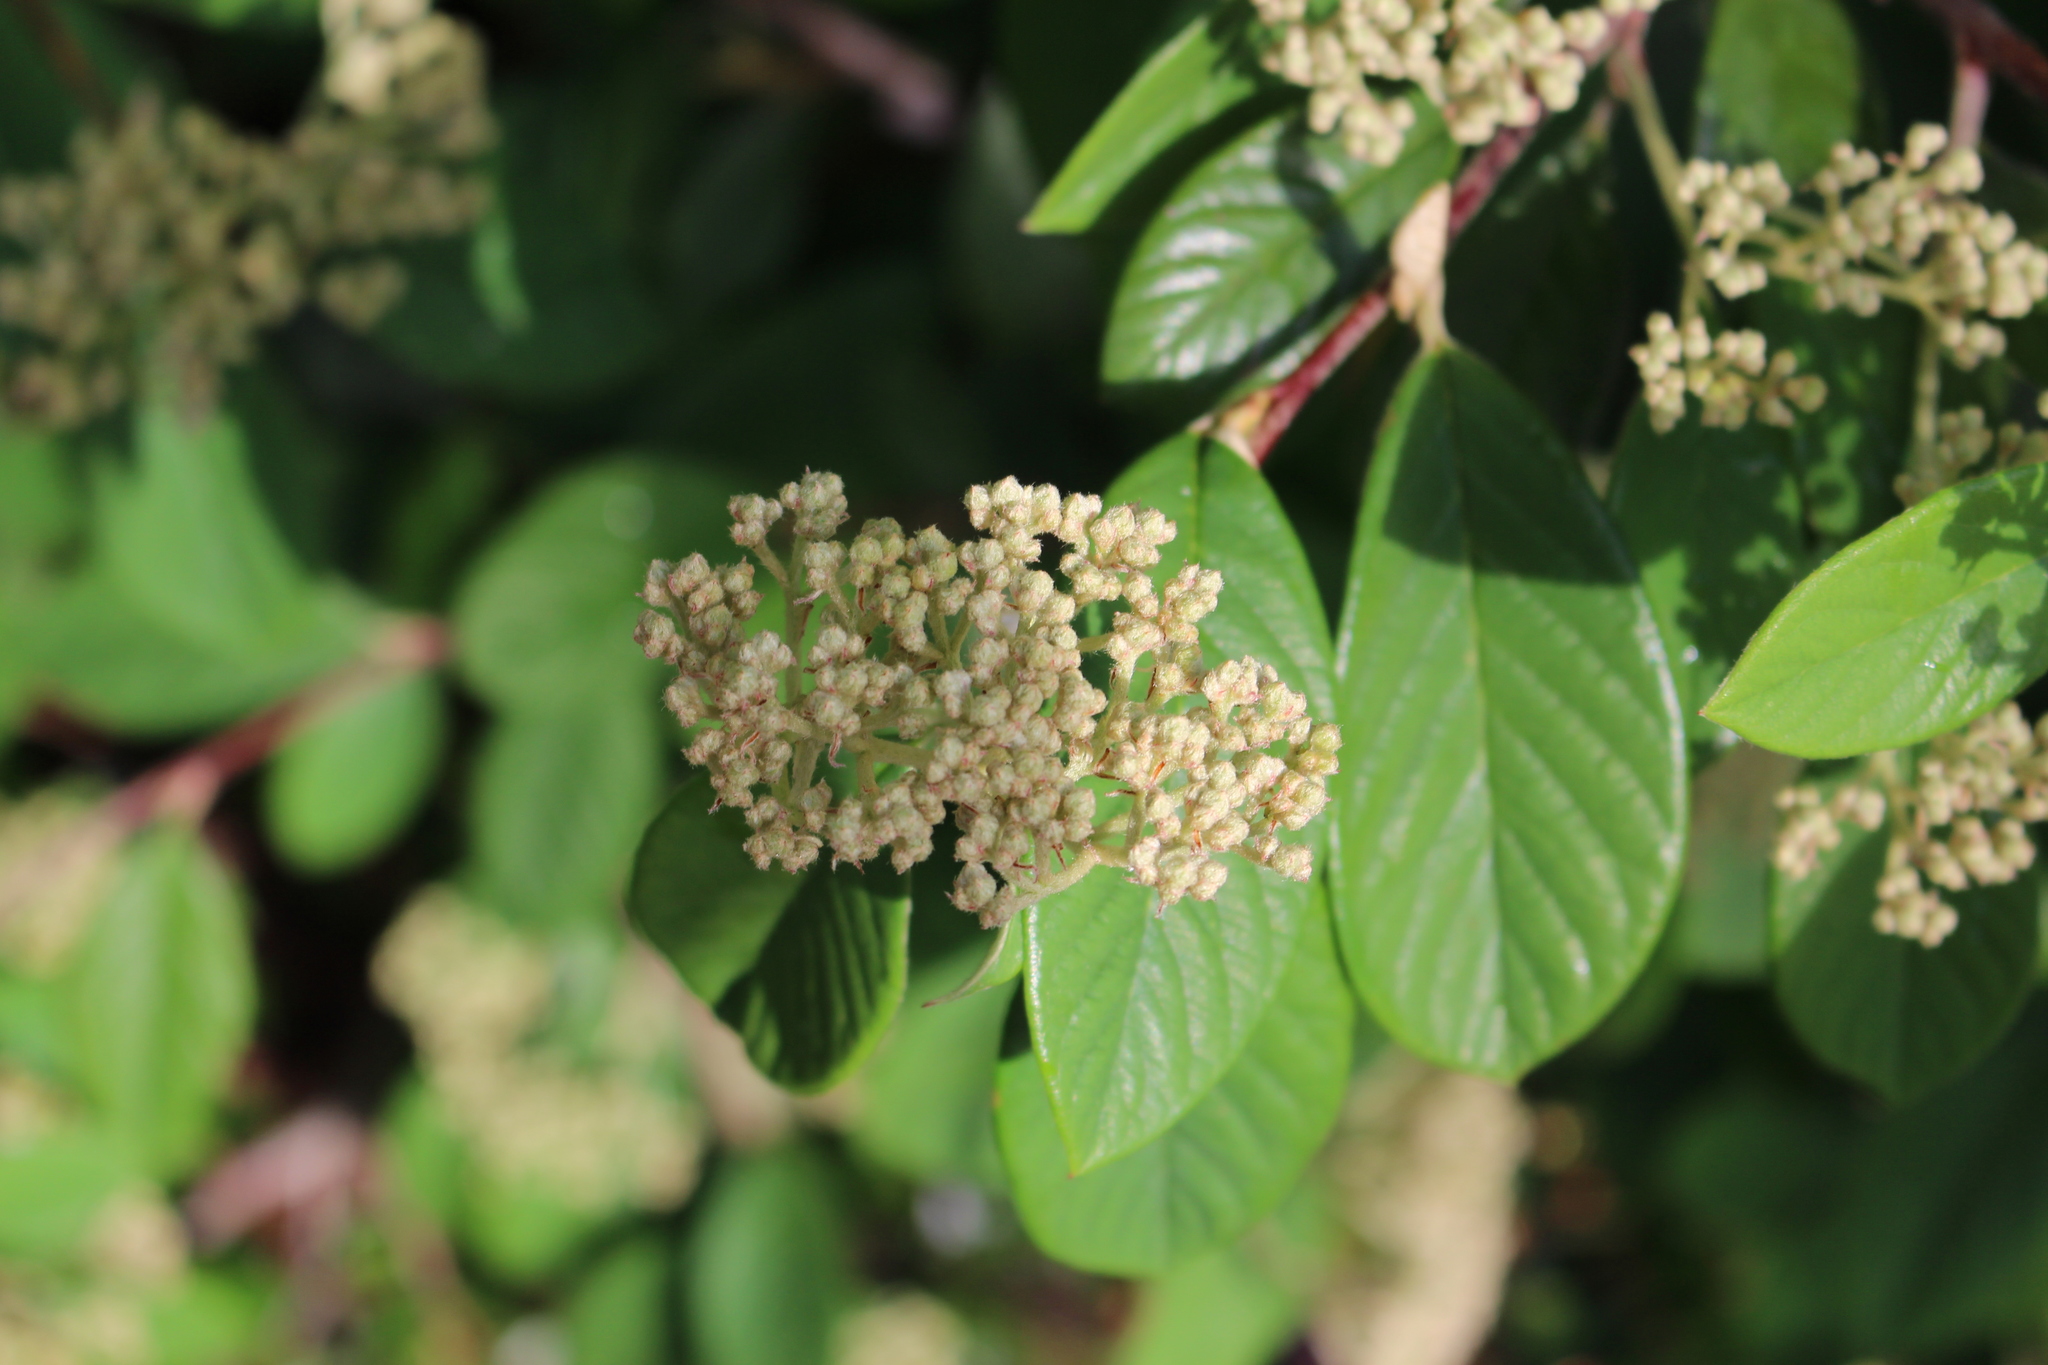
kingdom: Plantae
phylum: Tracheophyta
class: Magnoliopsida
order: Rosales
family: Rosaceae
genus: Cotoneaster
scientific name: Cotoneaster coriaceus
